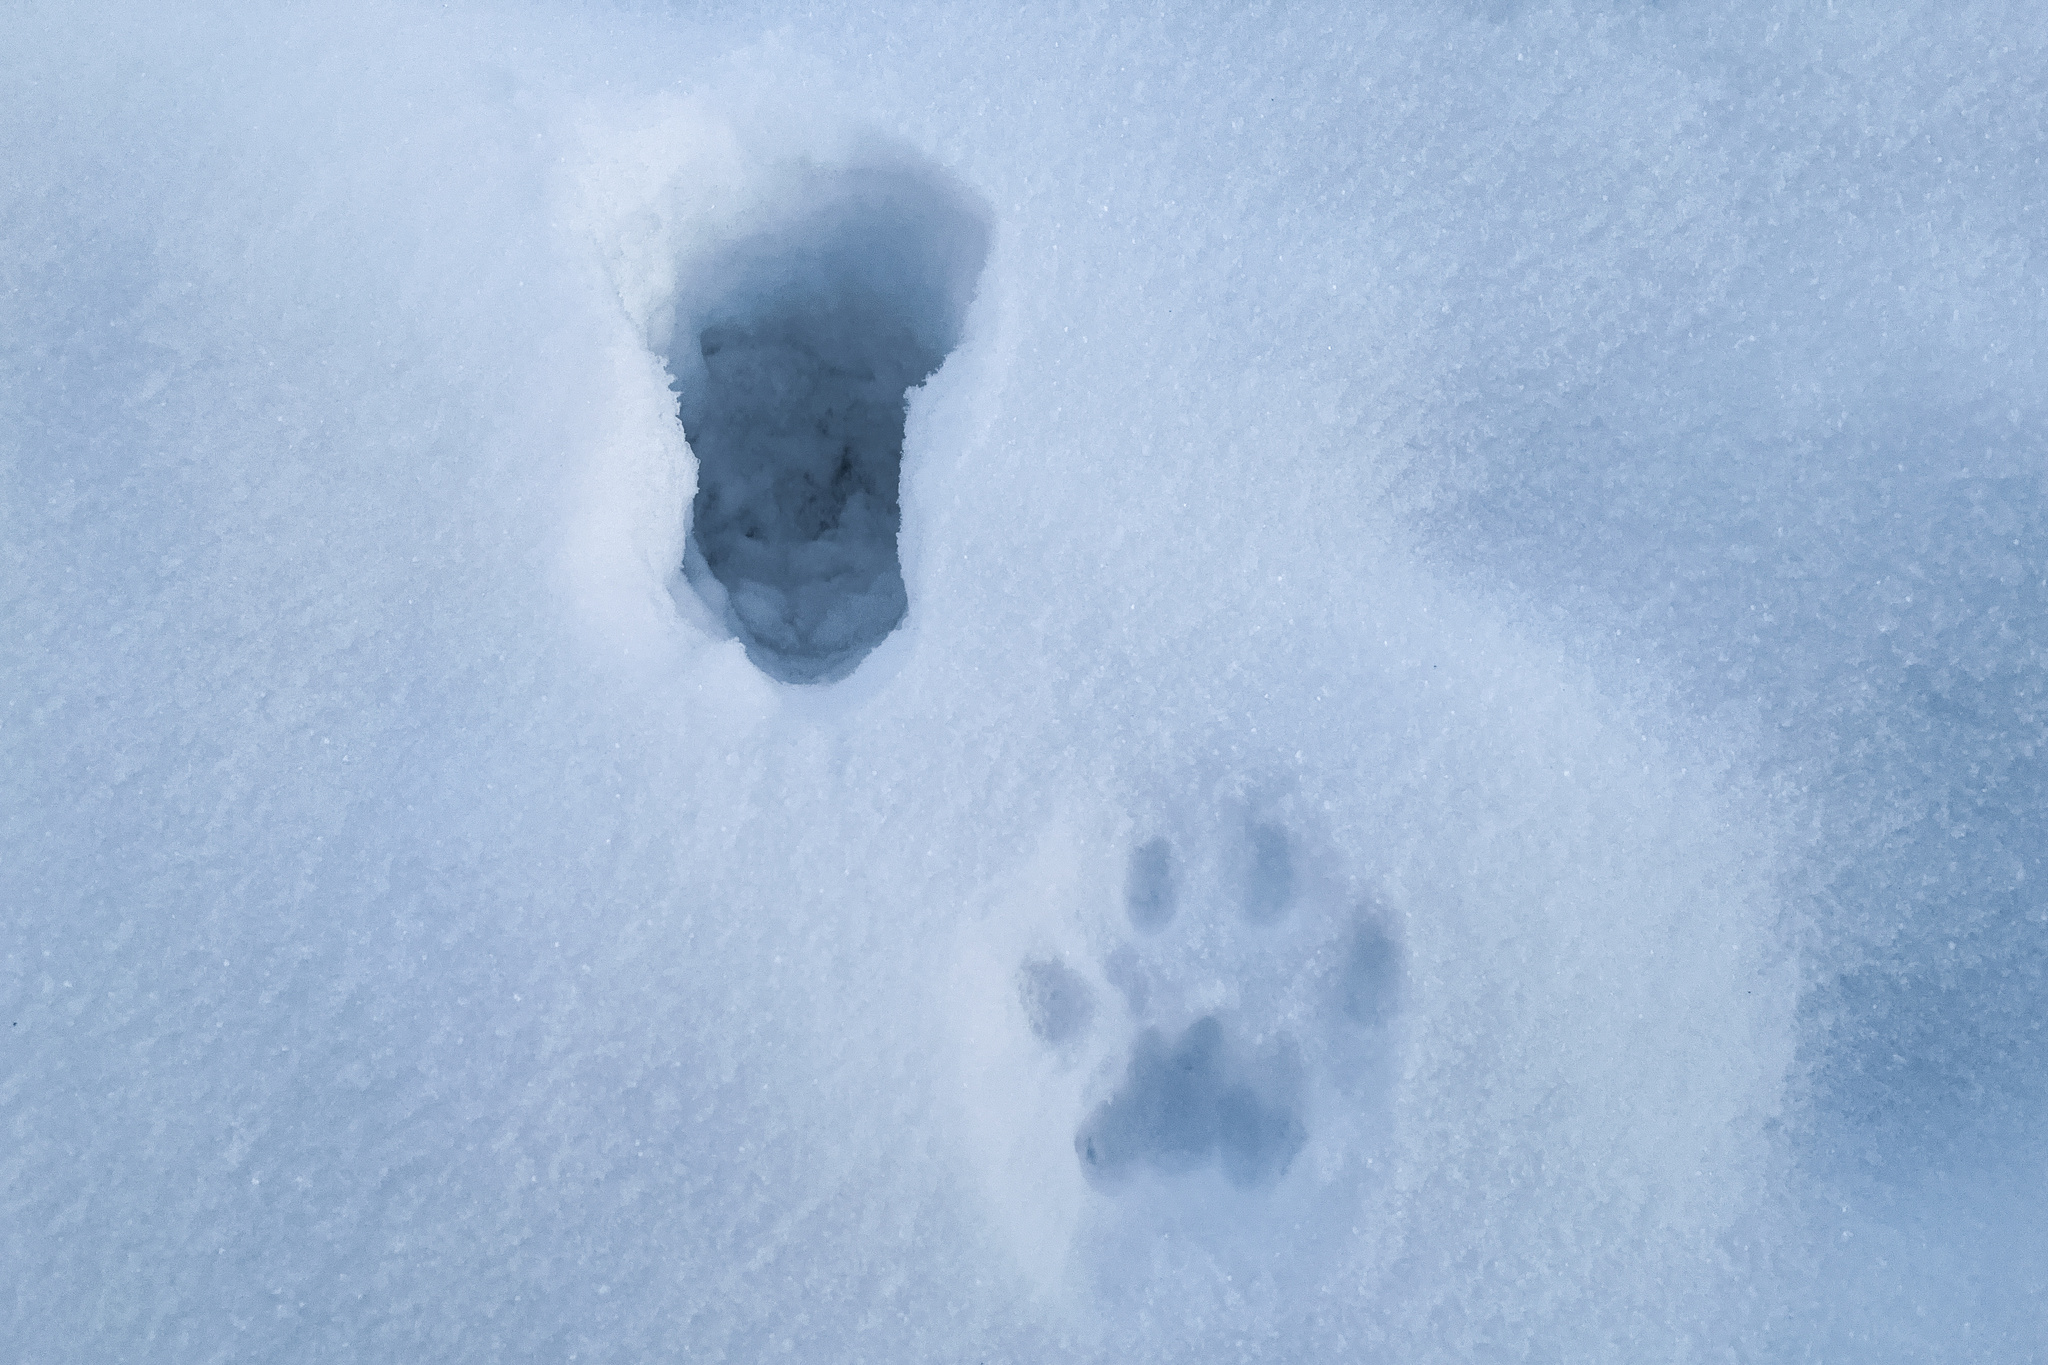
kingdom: Animalia
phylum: Chordata
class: Mammalia
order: Carnivora
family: Felidae
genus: Lynx
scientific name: Lynx lynx
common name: Eurasian lynx
